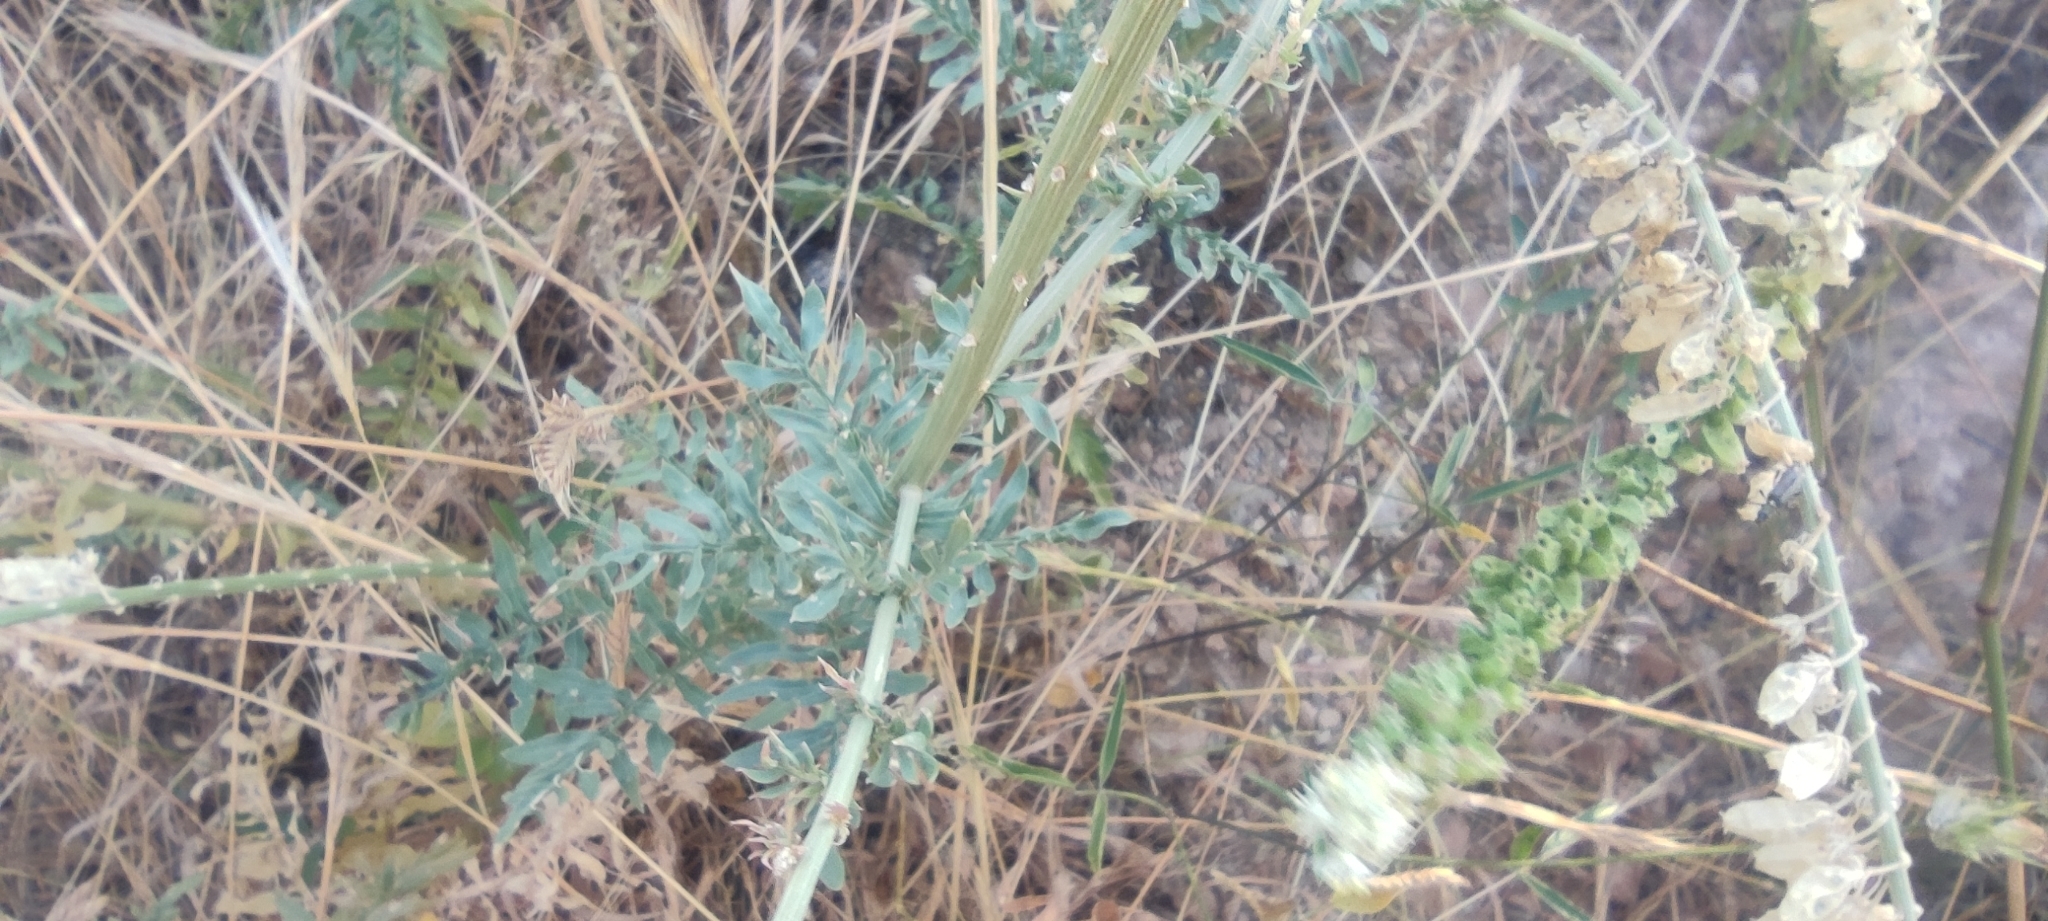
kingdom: Plantae
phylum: Tracheophyta
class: Magnoliopsida
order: Brassicales
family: Resedaceae
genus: Reseda
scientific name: Reseda alba
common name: White mignonette
